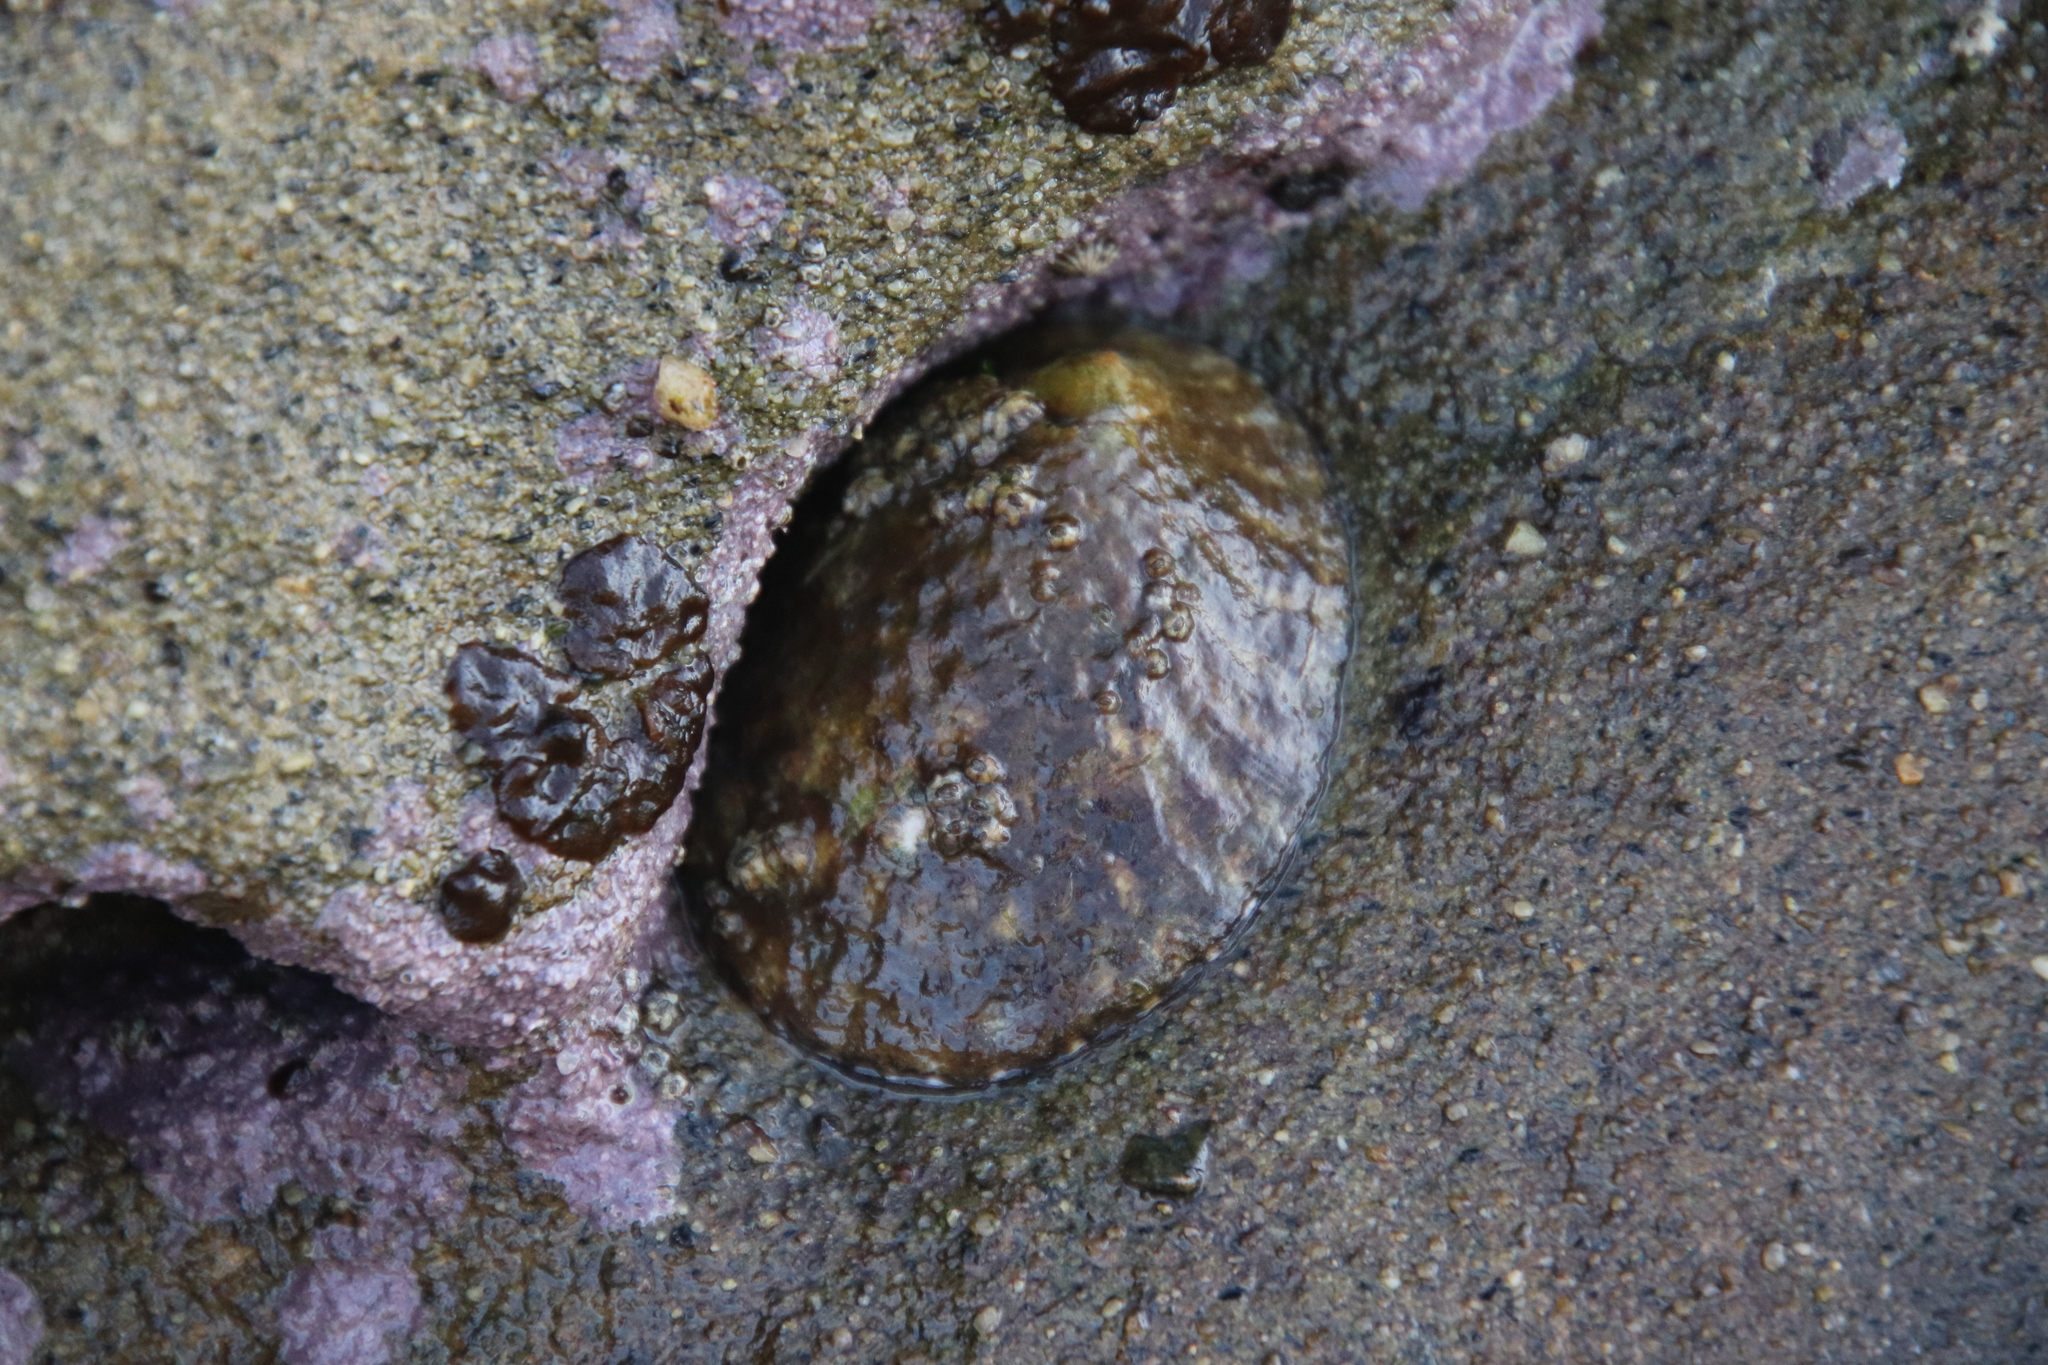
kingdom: Animalia
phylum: Mollusca
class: Gastropoda
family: Lottiidae
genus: Lottia
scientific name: Lottia gigantea
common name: Owl limpet
